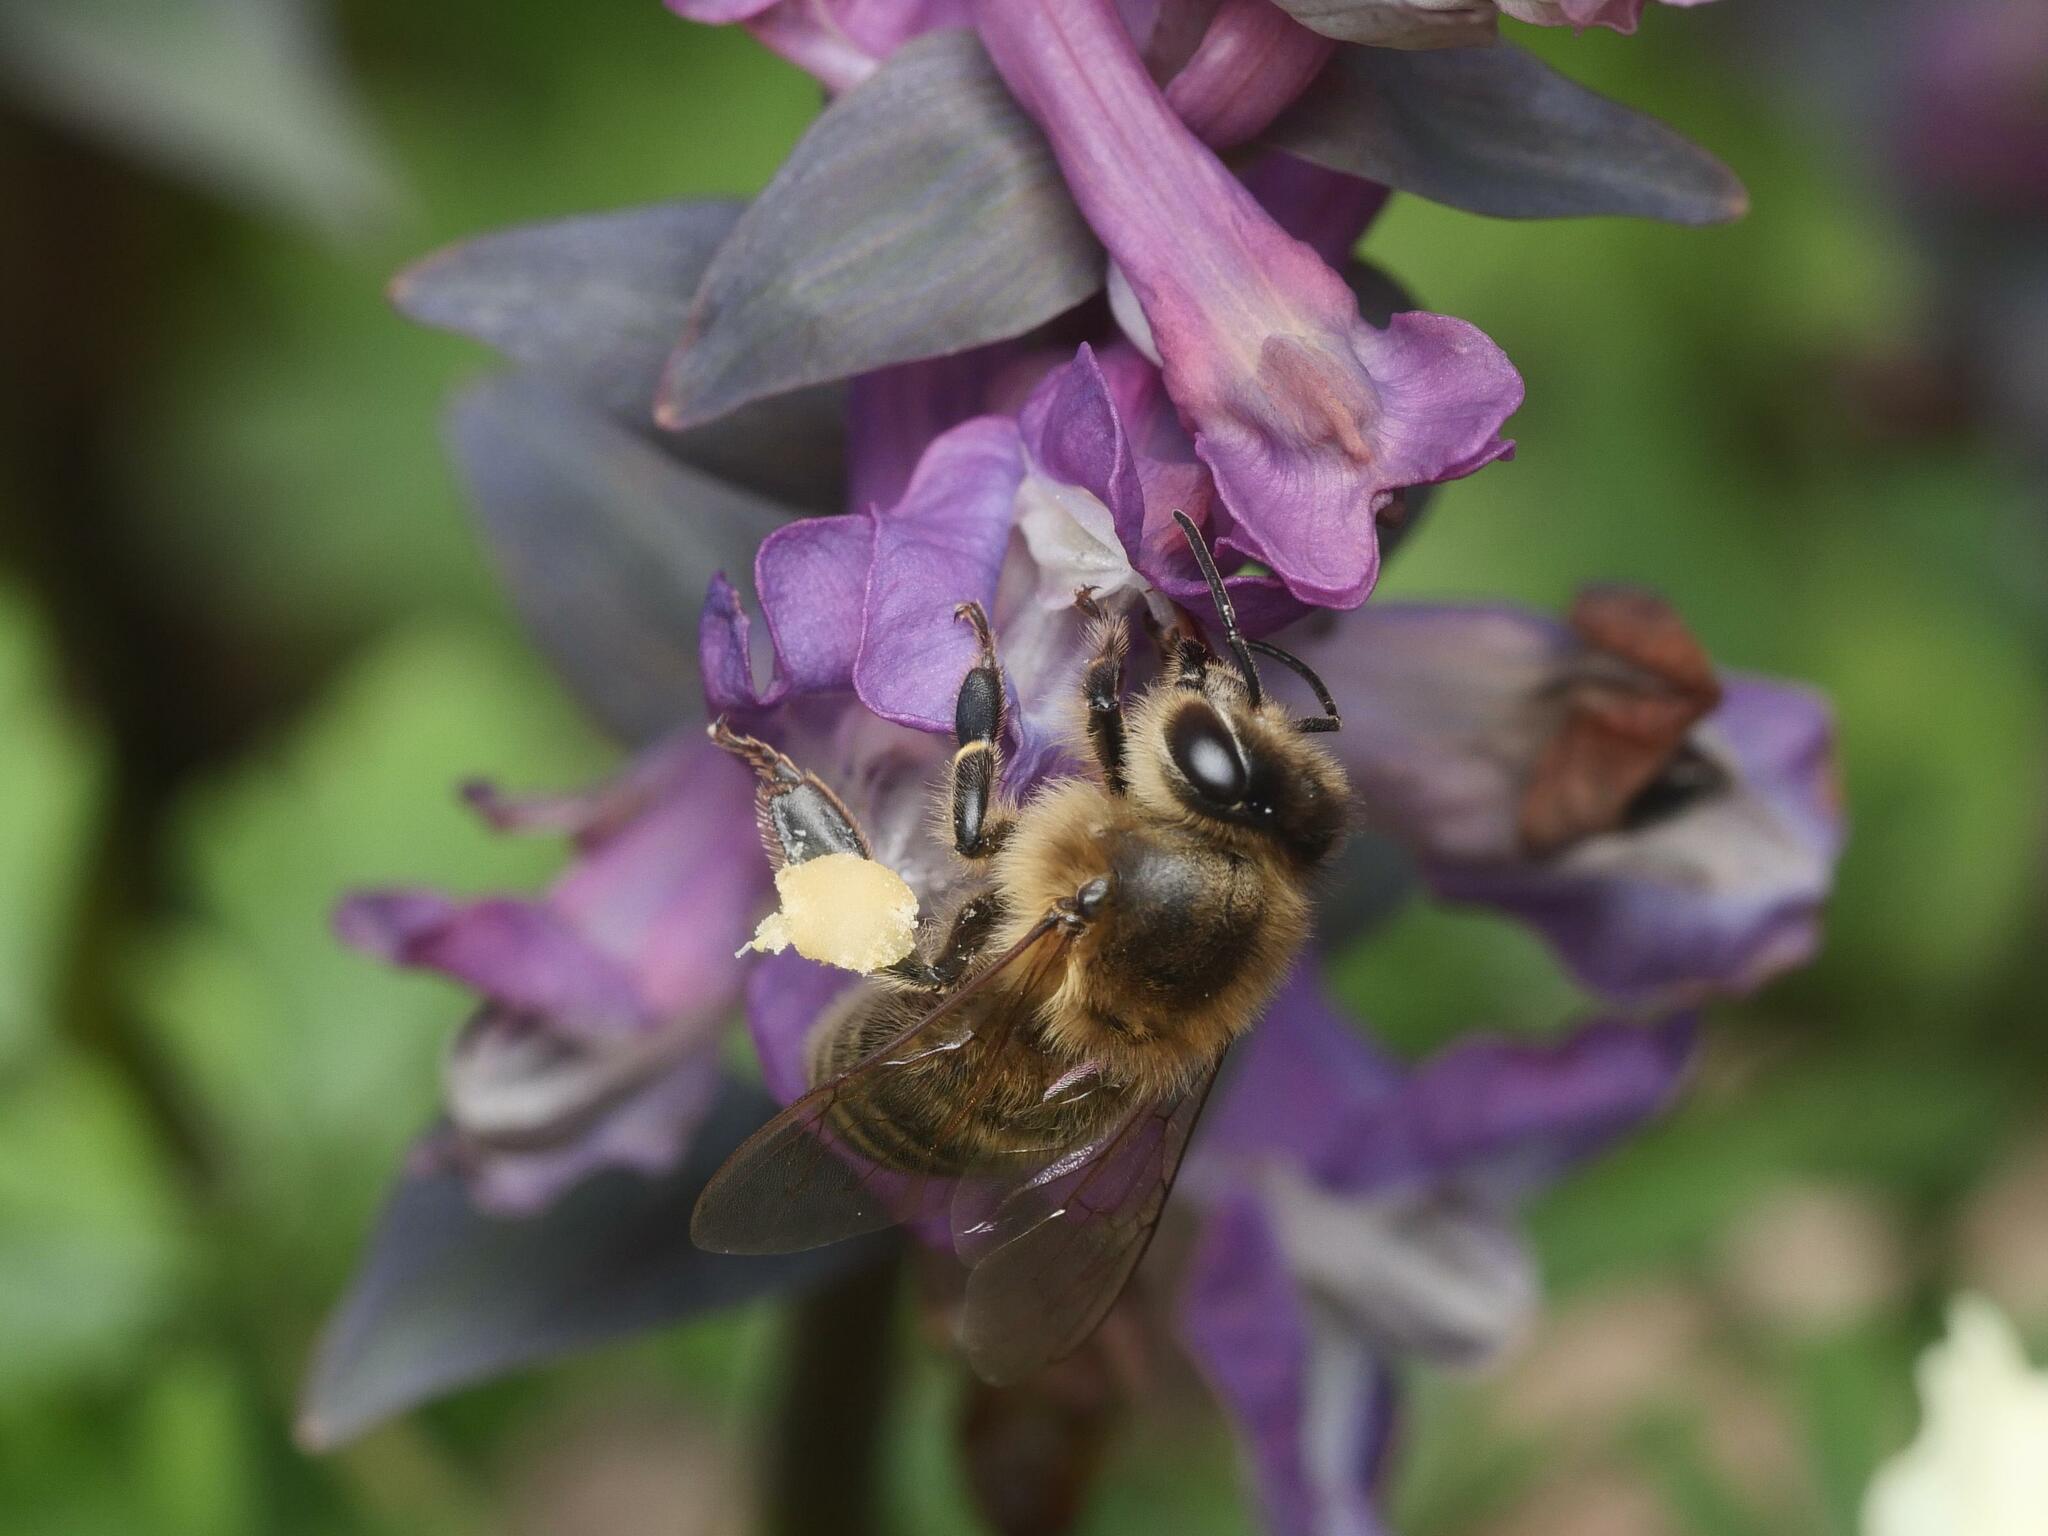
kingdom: Animalia
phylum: Arthropoda
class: Insecta
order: Hymenoptera
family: Apidae
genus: Apis
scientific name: Apis mellifera
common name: Honey bee
